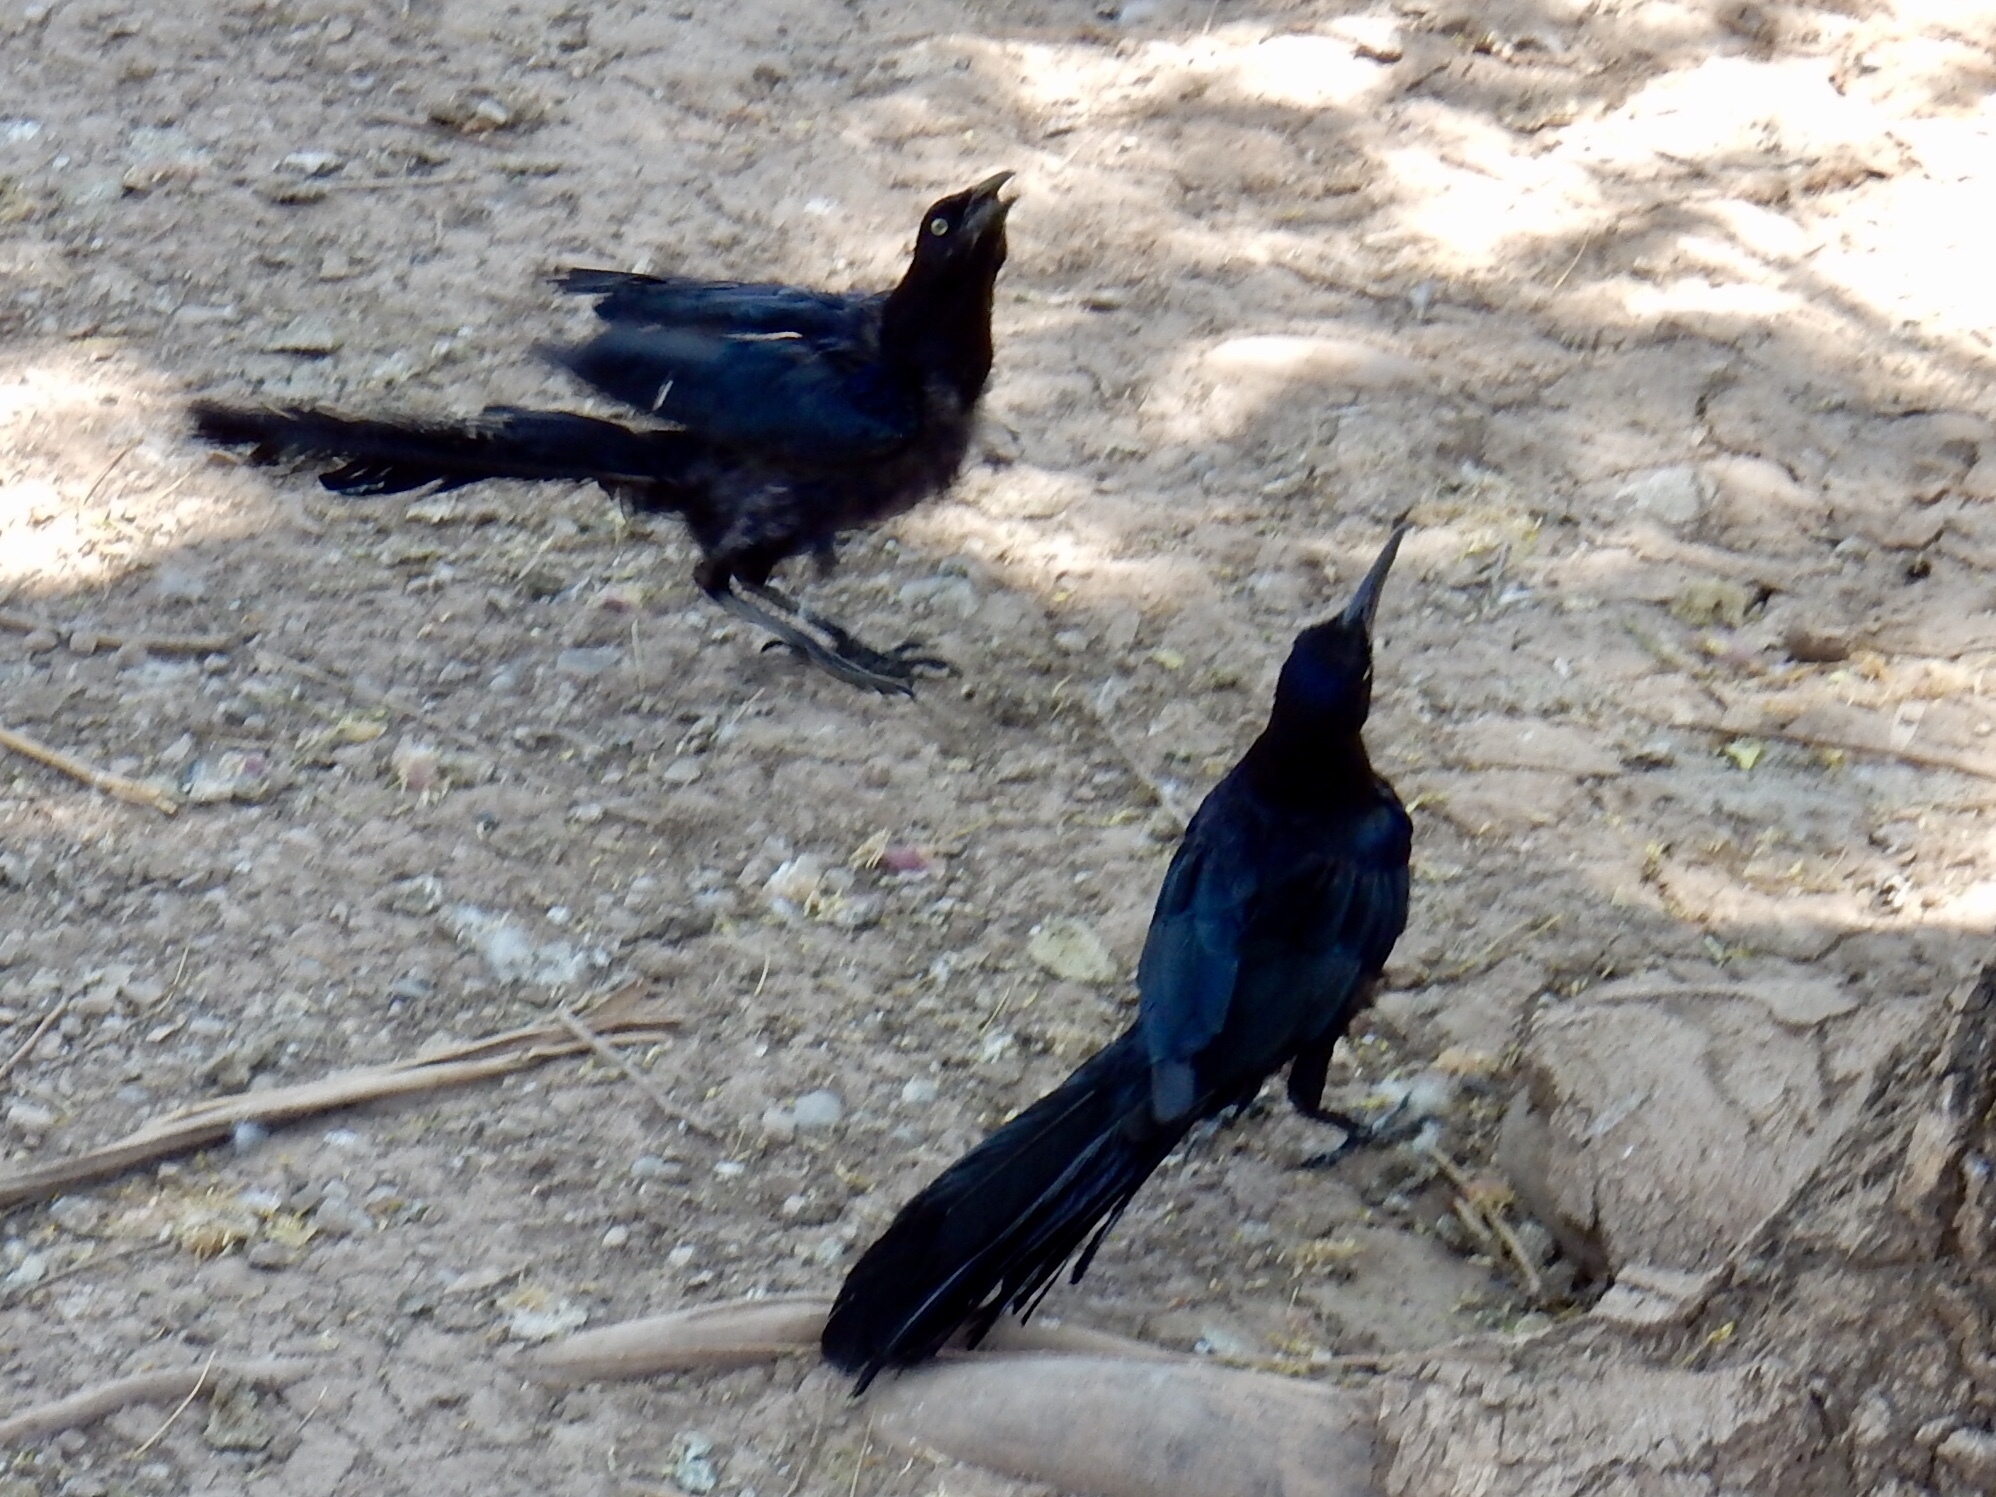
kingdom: Animalia
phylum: Chordata
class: Aves
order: Passeriformes
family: Icteridae
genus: Quiscalus
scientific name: Quiscalus mexicanus
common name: Great-tailed grackle
